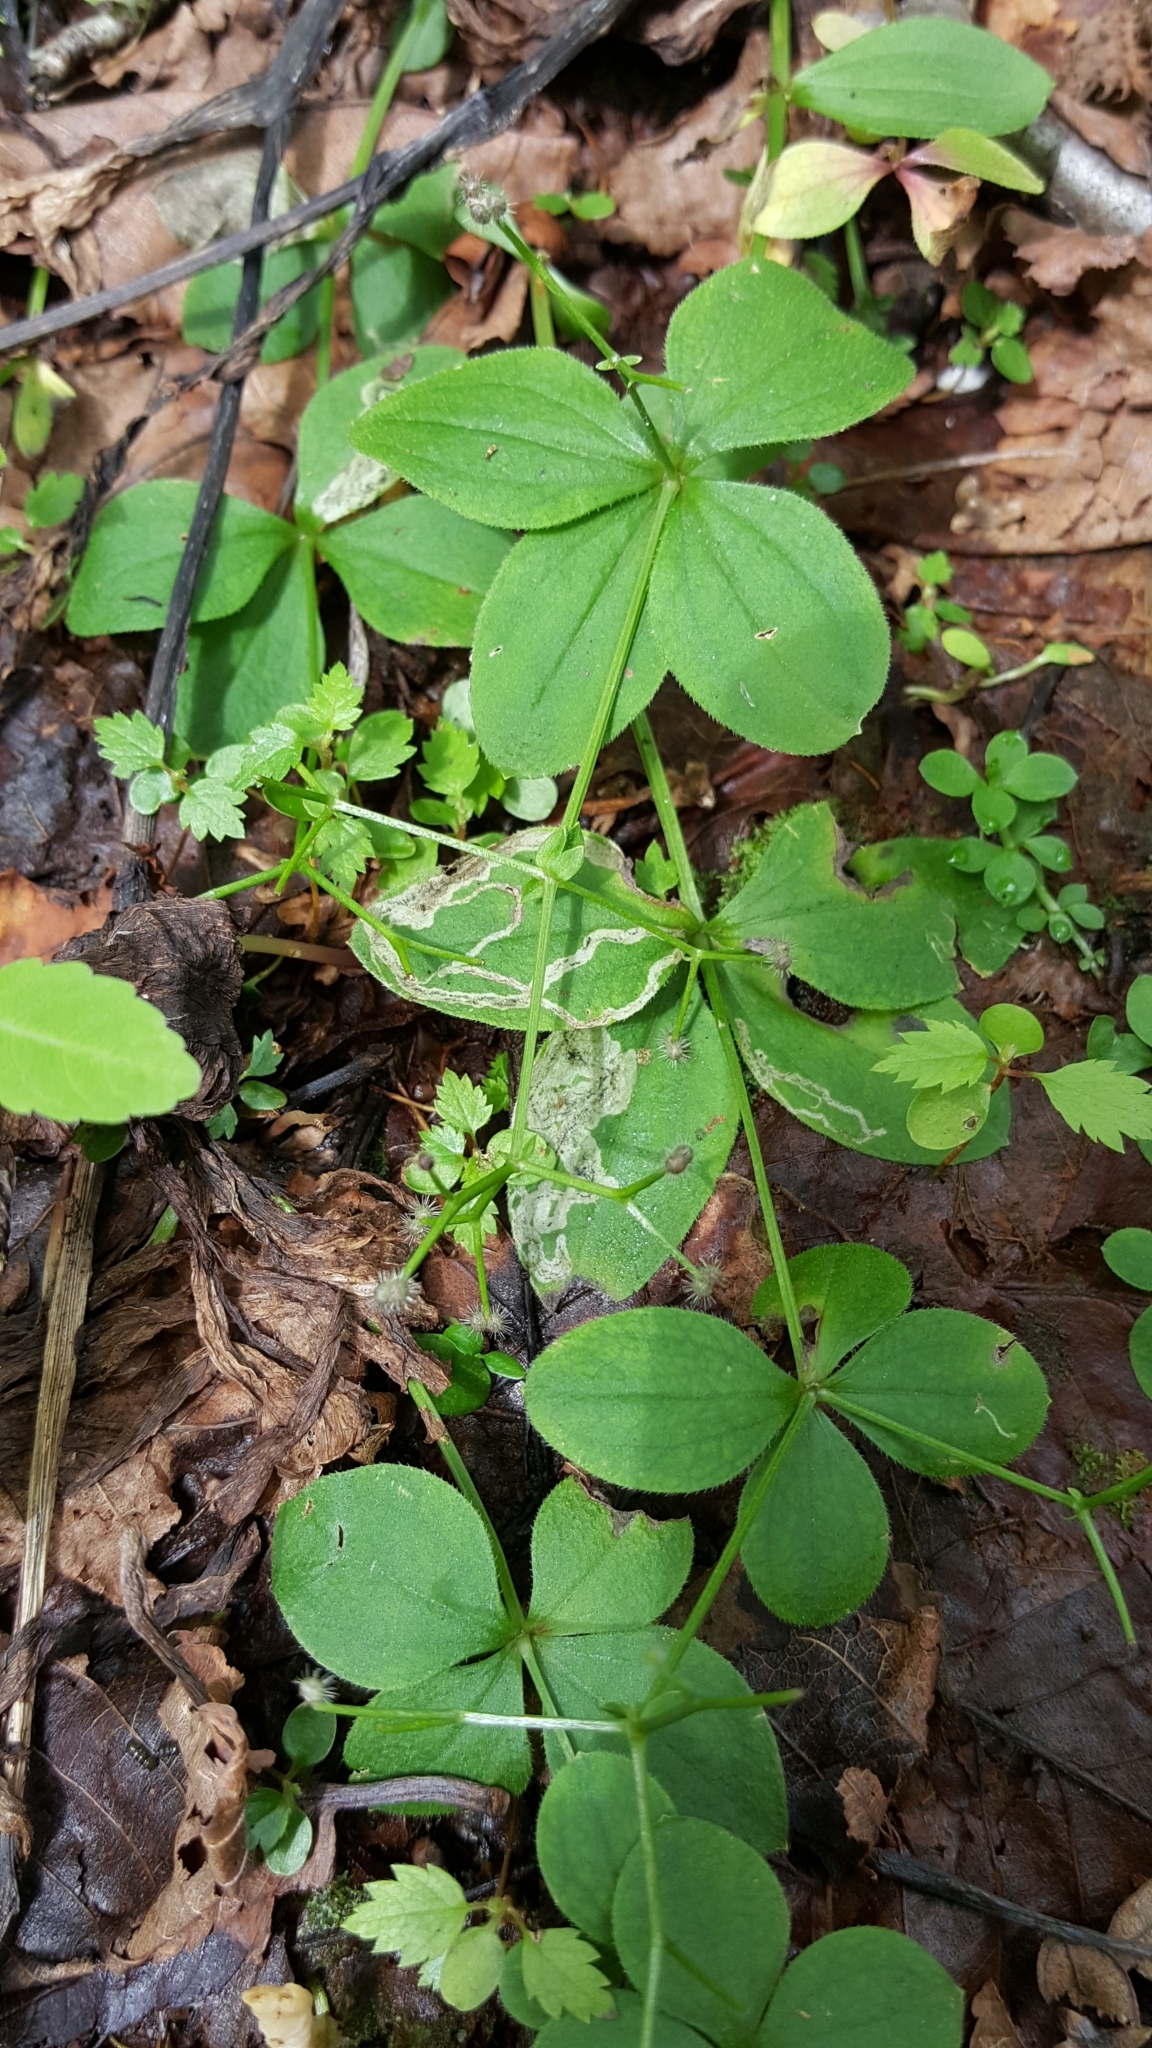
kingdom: Plantae
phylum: Tracheophyta
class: Magnoliopsida
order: Gentianales
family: Rubiaceae
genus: Galium
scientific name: Galium kamtschaticum
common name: Boreal bedstraw
